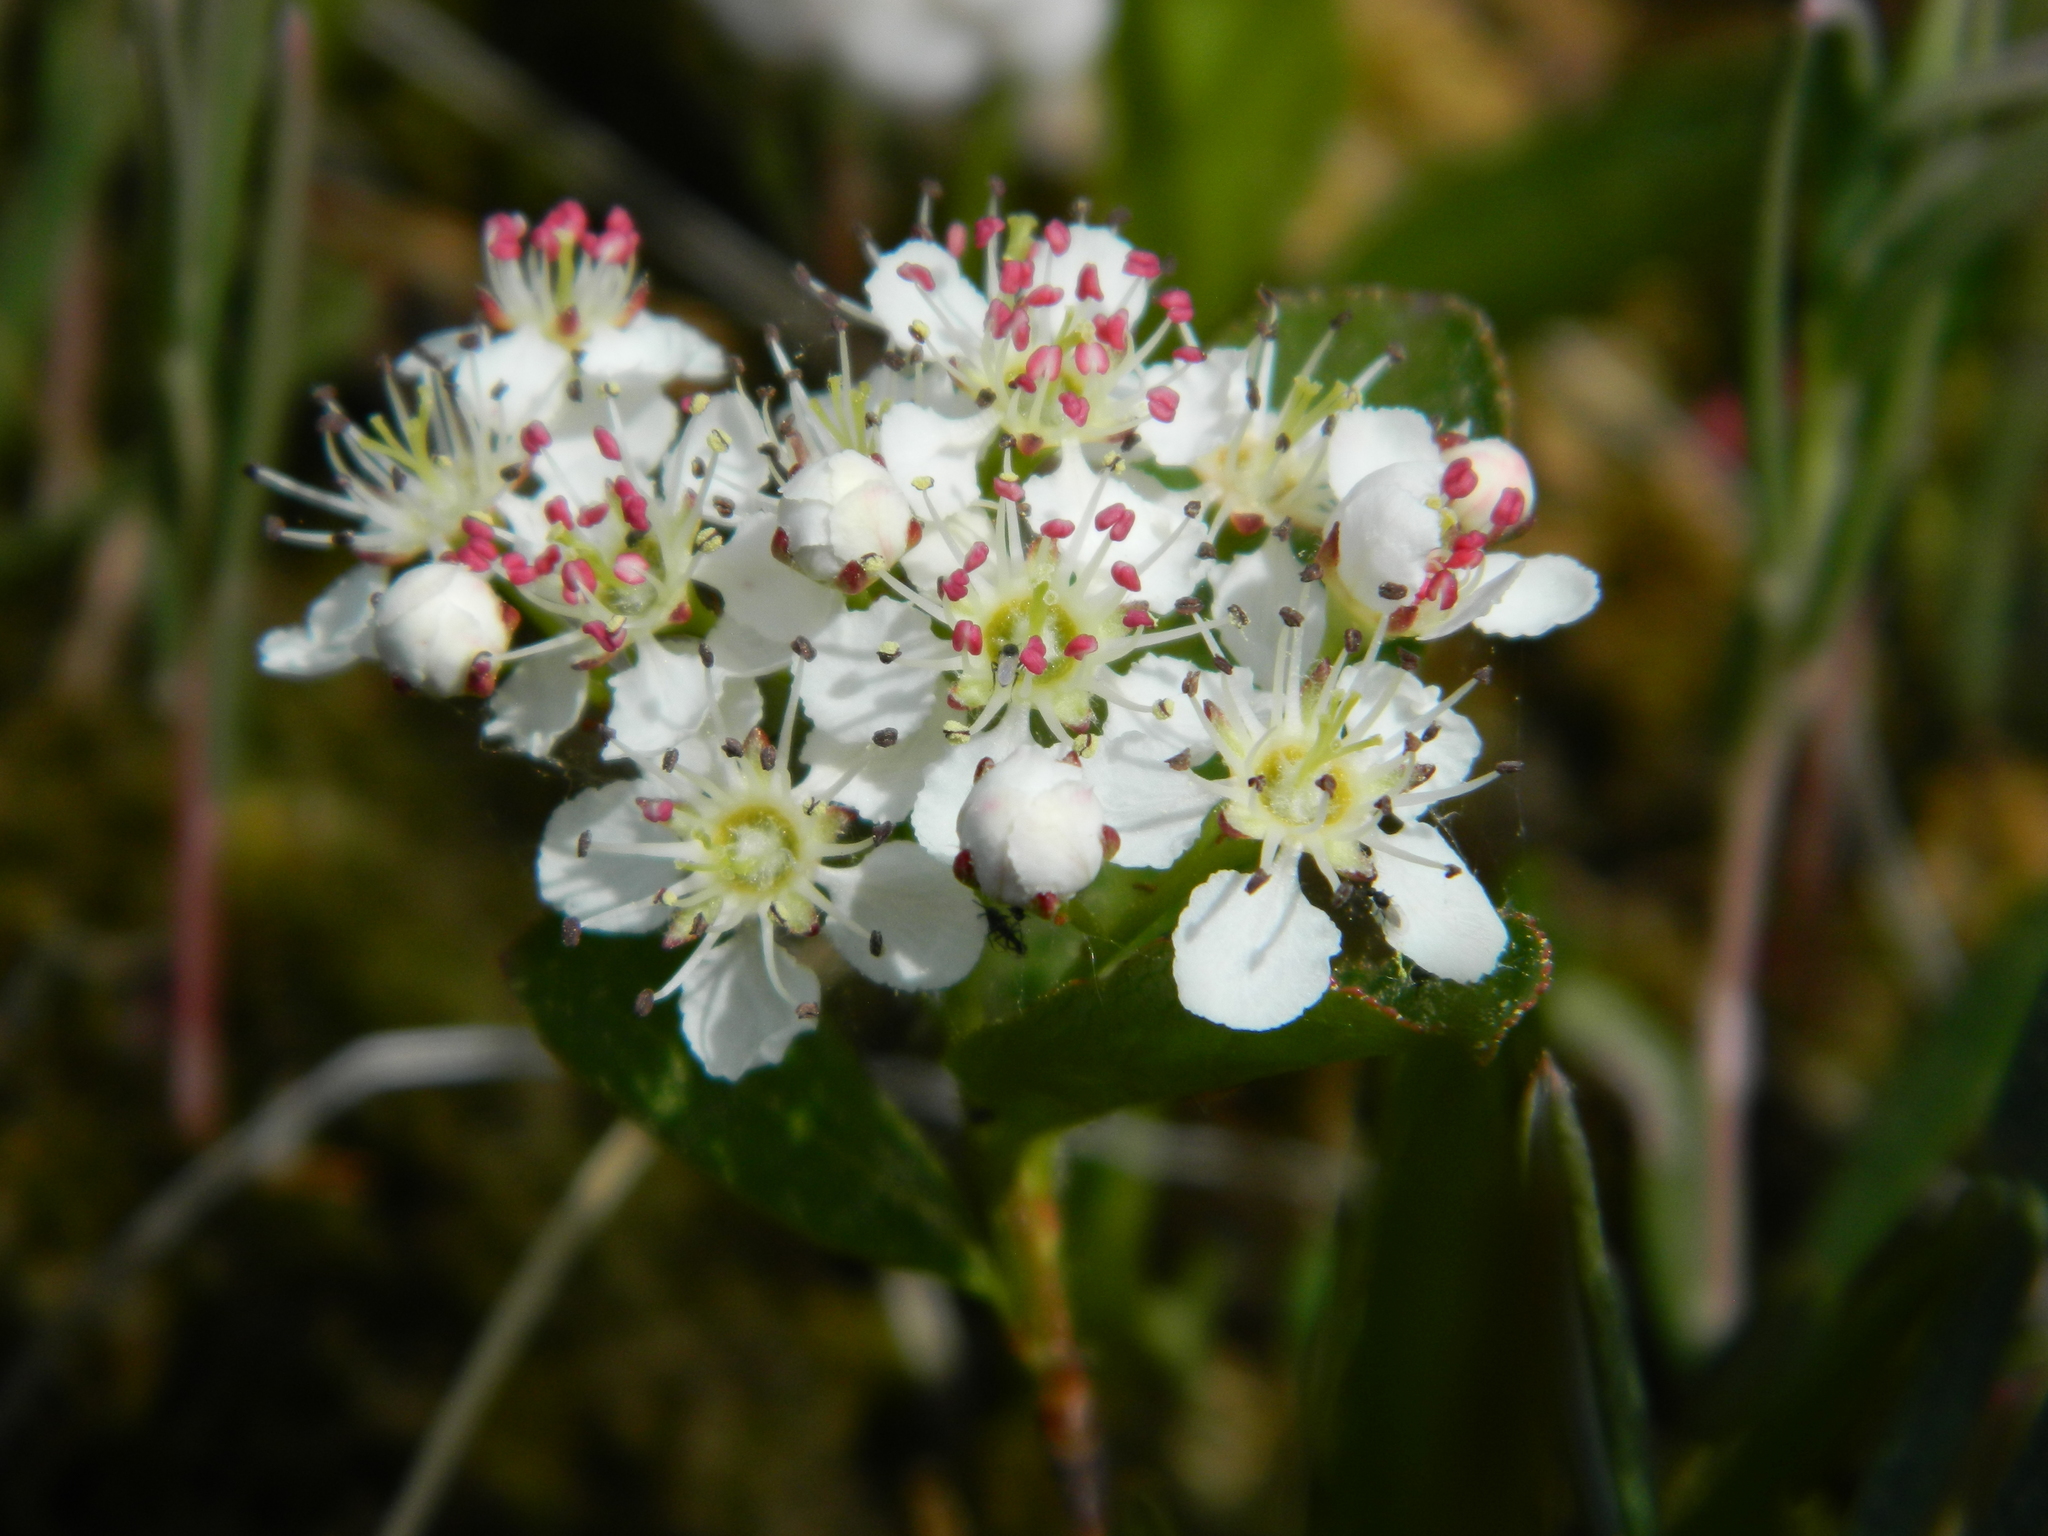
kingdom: Plantae
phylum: Tracheophyta
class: Magnoliopsida
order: Rosales
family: Rosaceae
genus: Aronia
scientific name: Aronia melanocarpa
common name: Black chokeberry
